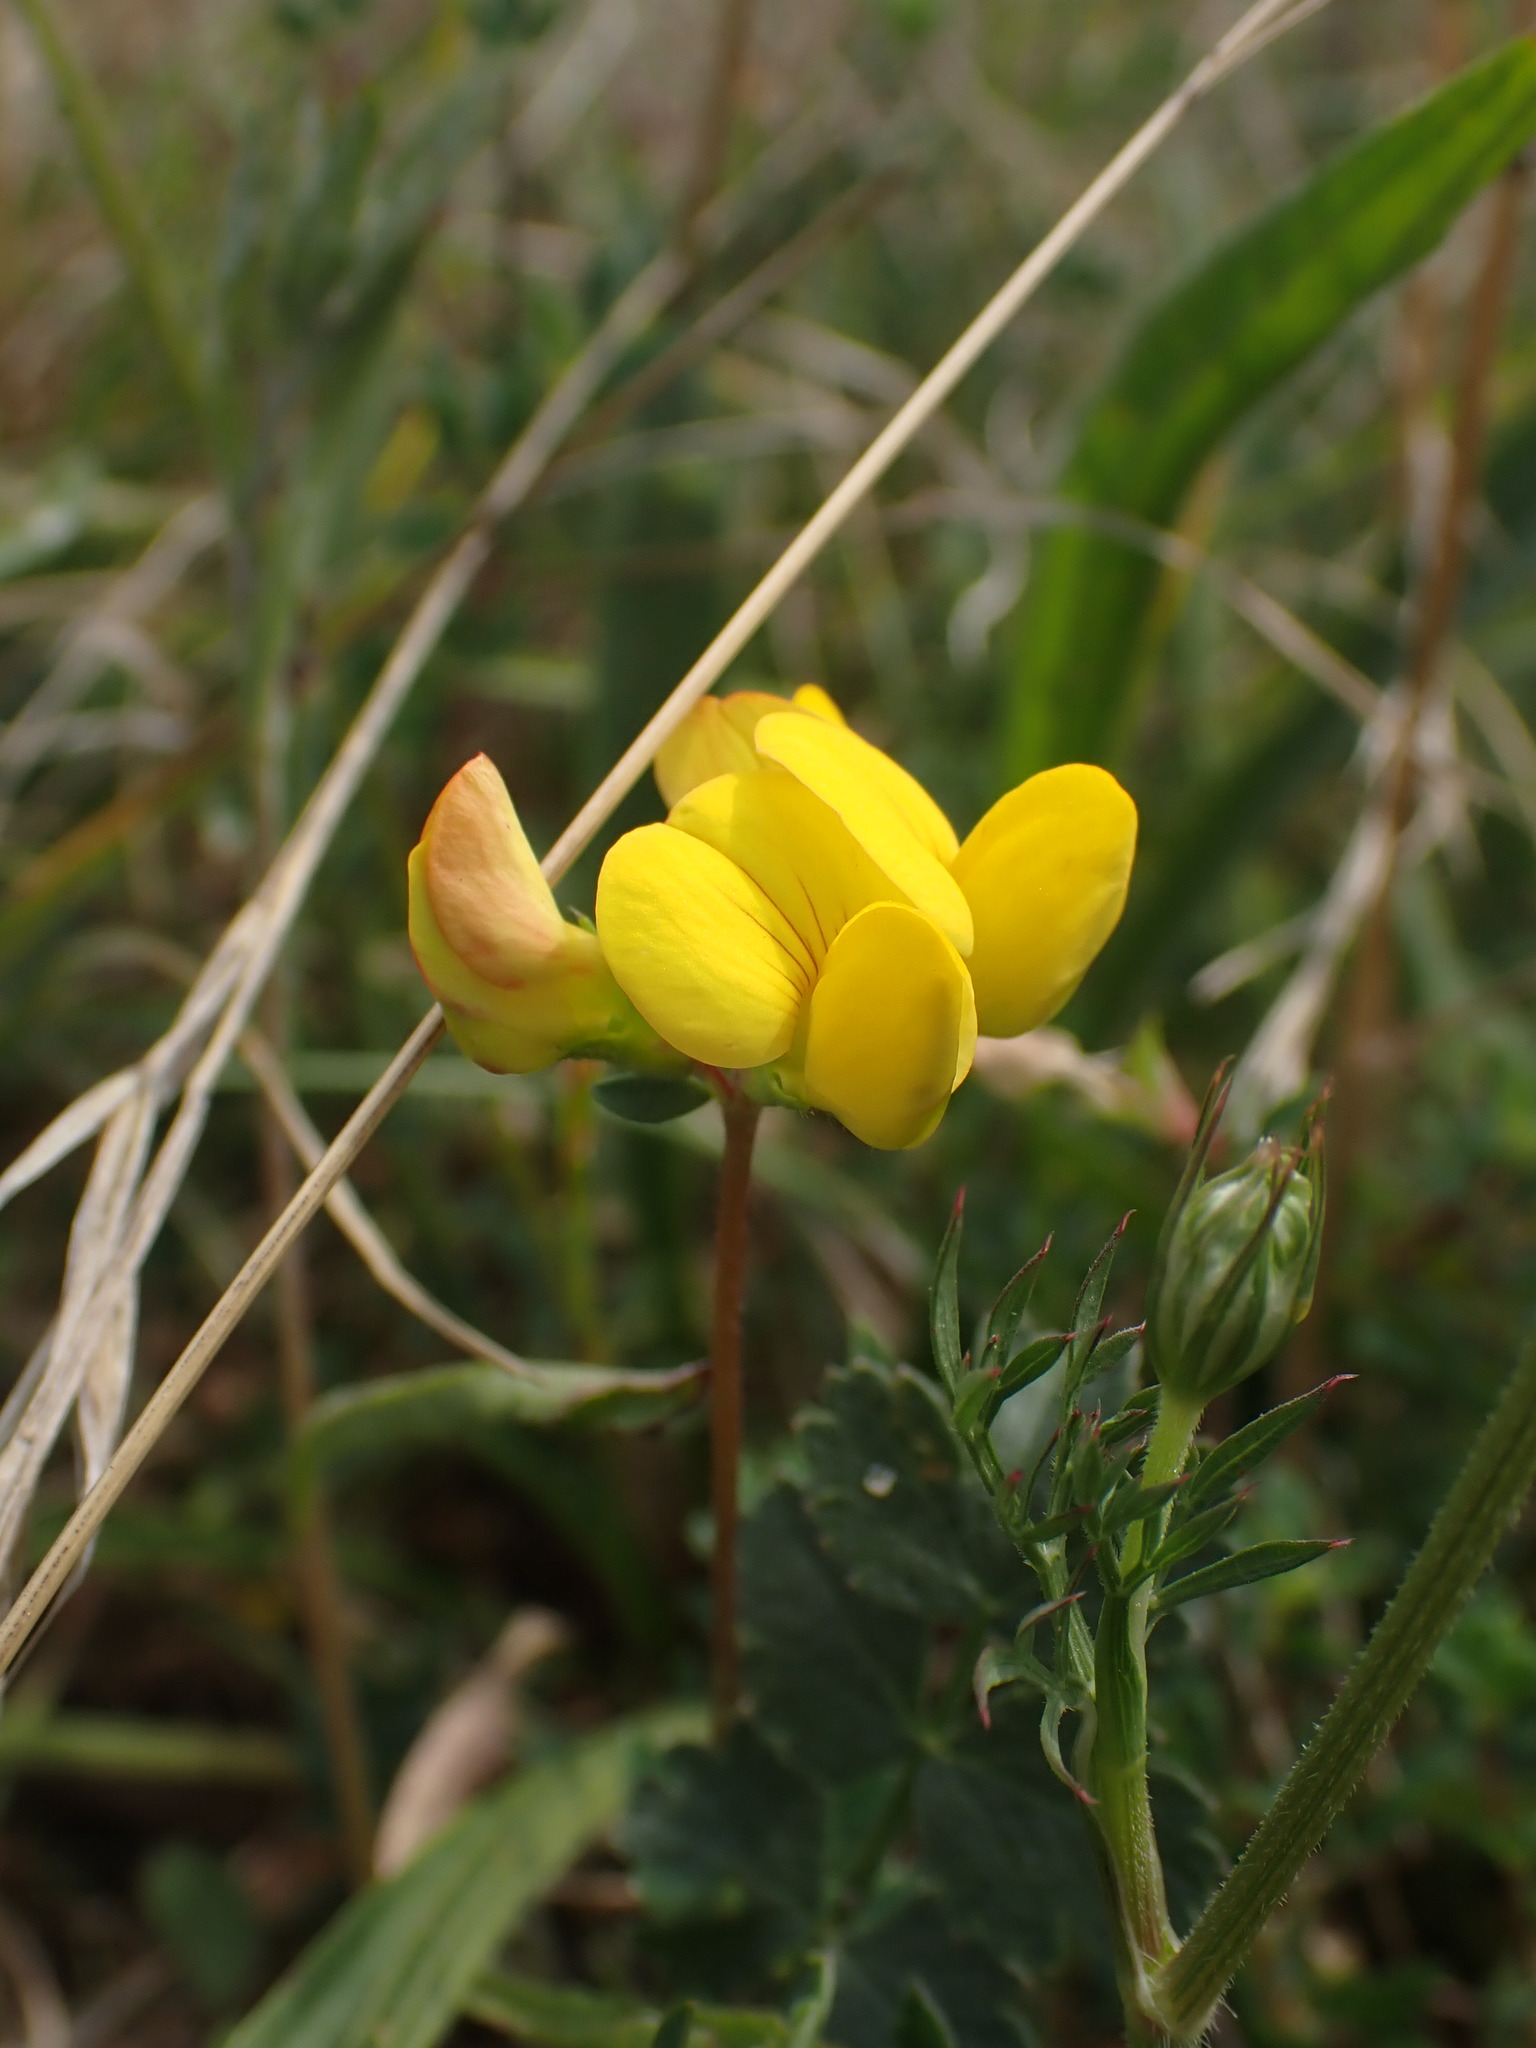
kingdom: Plantae
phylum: Tracheophyta
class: Magnoliopsida
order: Fabales
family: Fabaceae
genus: Lotus
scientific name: Lotus corniculatus
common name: Common bird's-foot-trefoil
